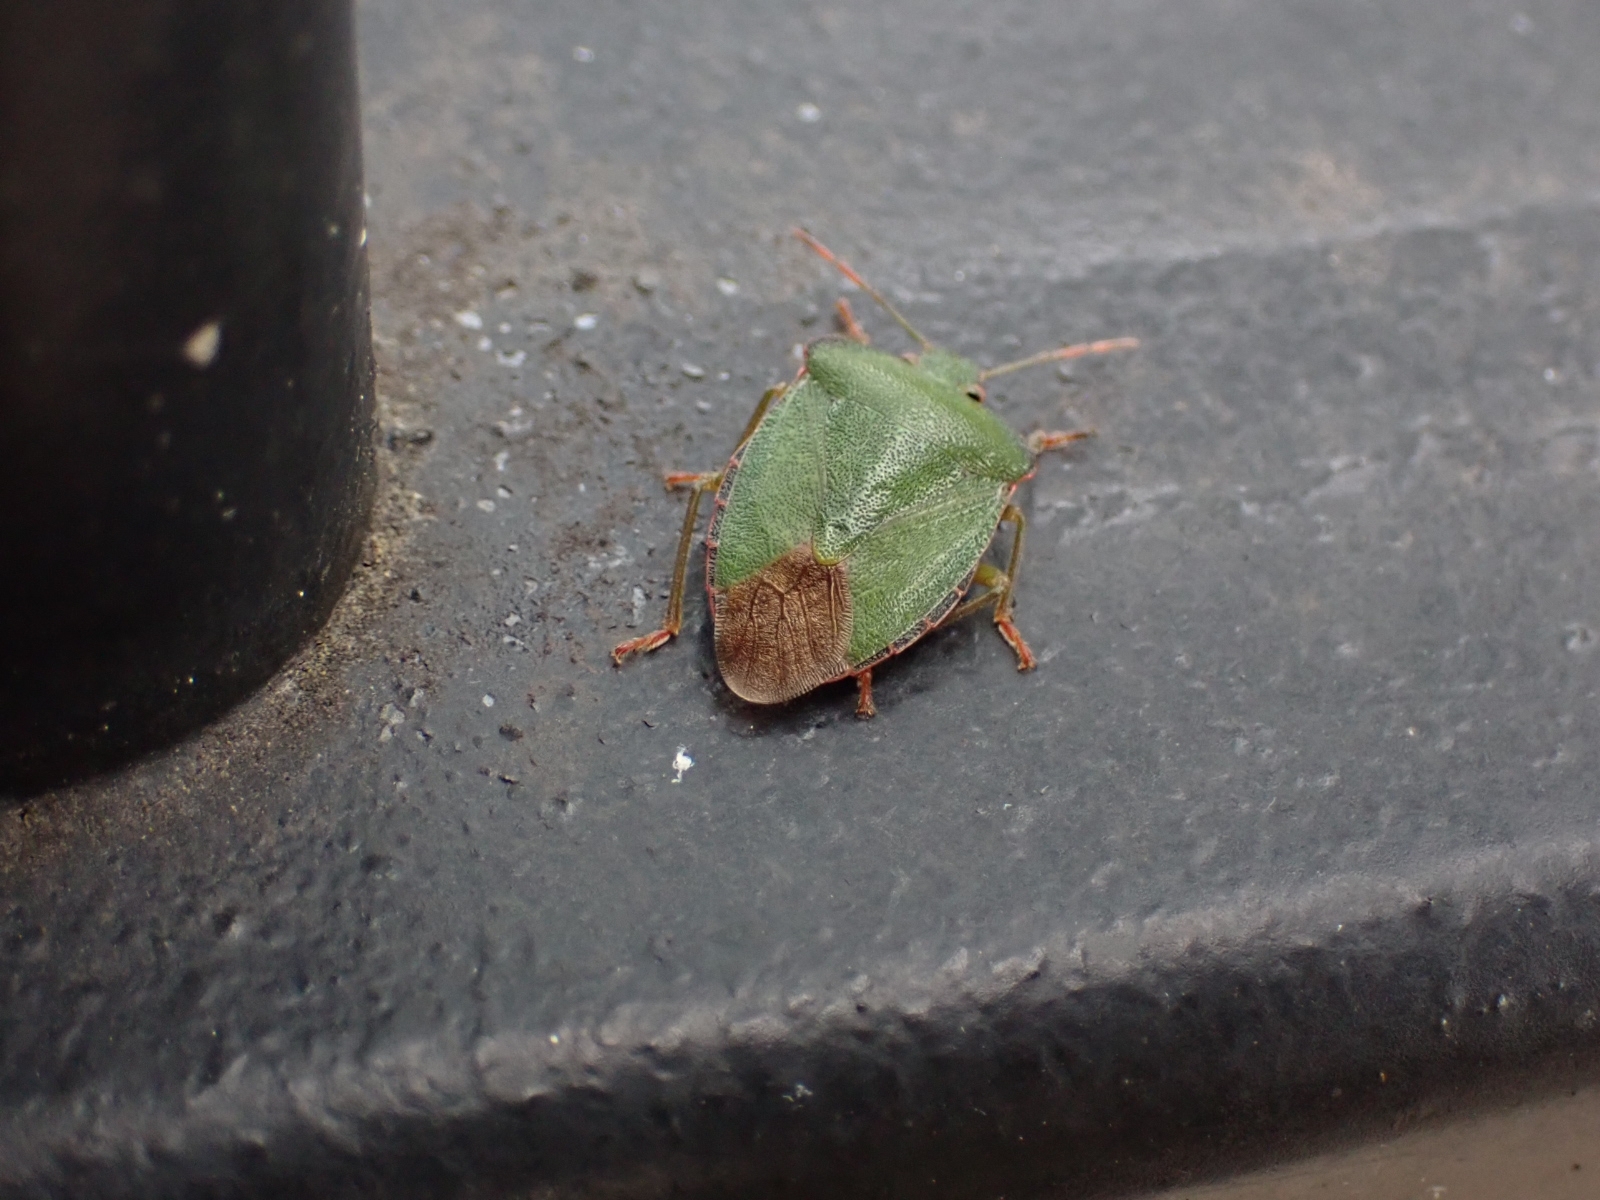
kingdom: Animalia
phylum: Arthropoda
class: Insecta
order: Hemiptera
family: Pentatomidae
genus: Palomena
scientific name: Palomena prasina
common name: Green shieldbug
